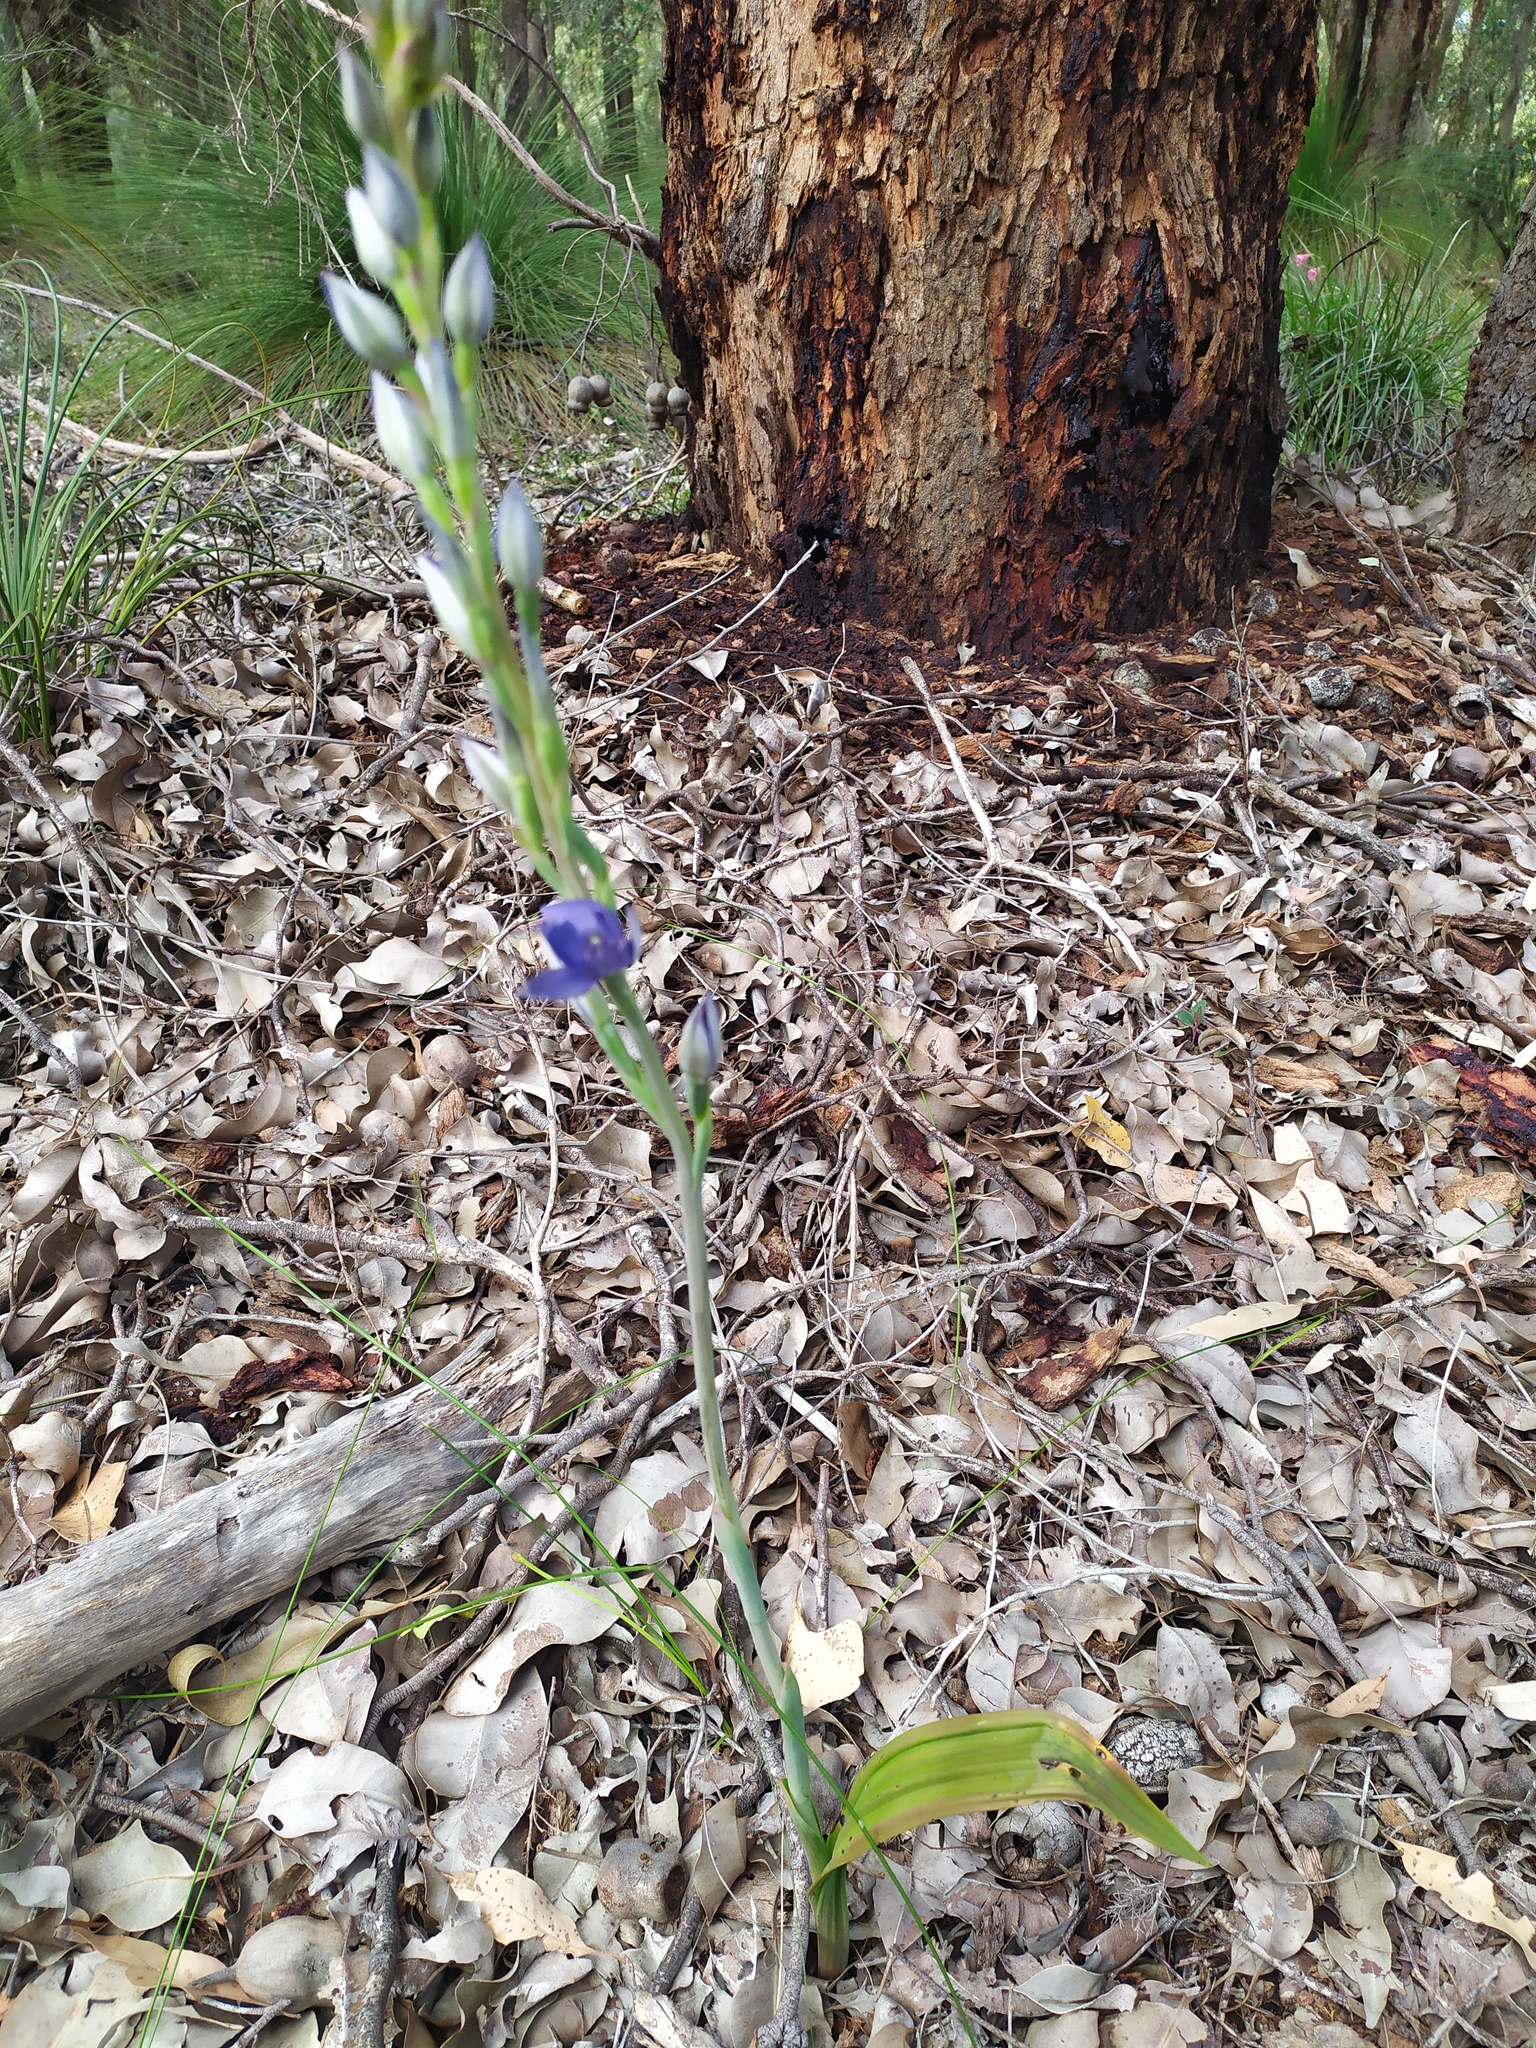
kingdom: Plantae
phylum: Tracheophyta
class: Liliopsida
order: Asparagales
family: Orchidaceae
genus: Thelymitra
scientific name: Thelymitra macrophylla
